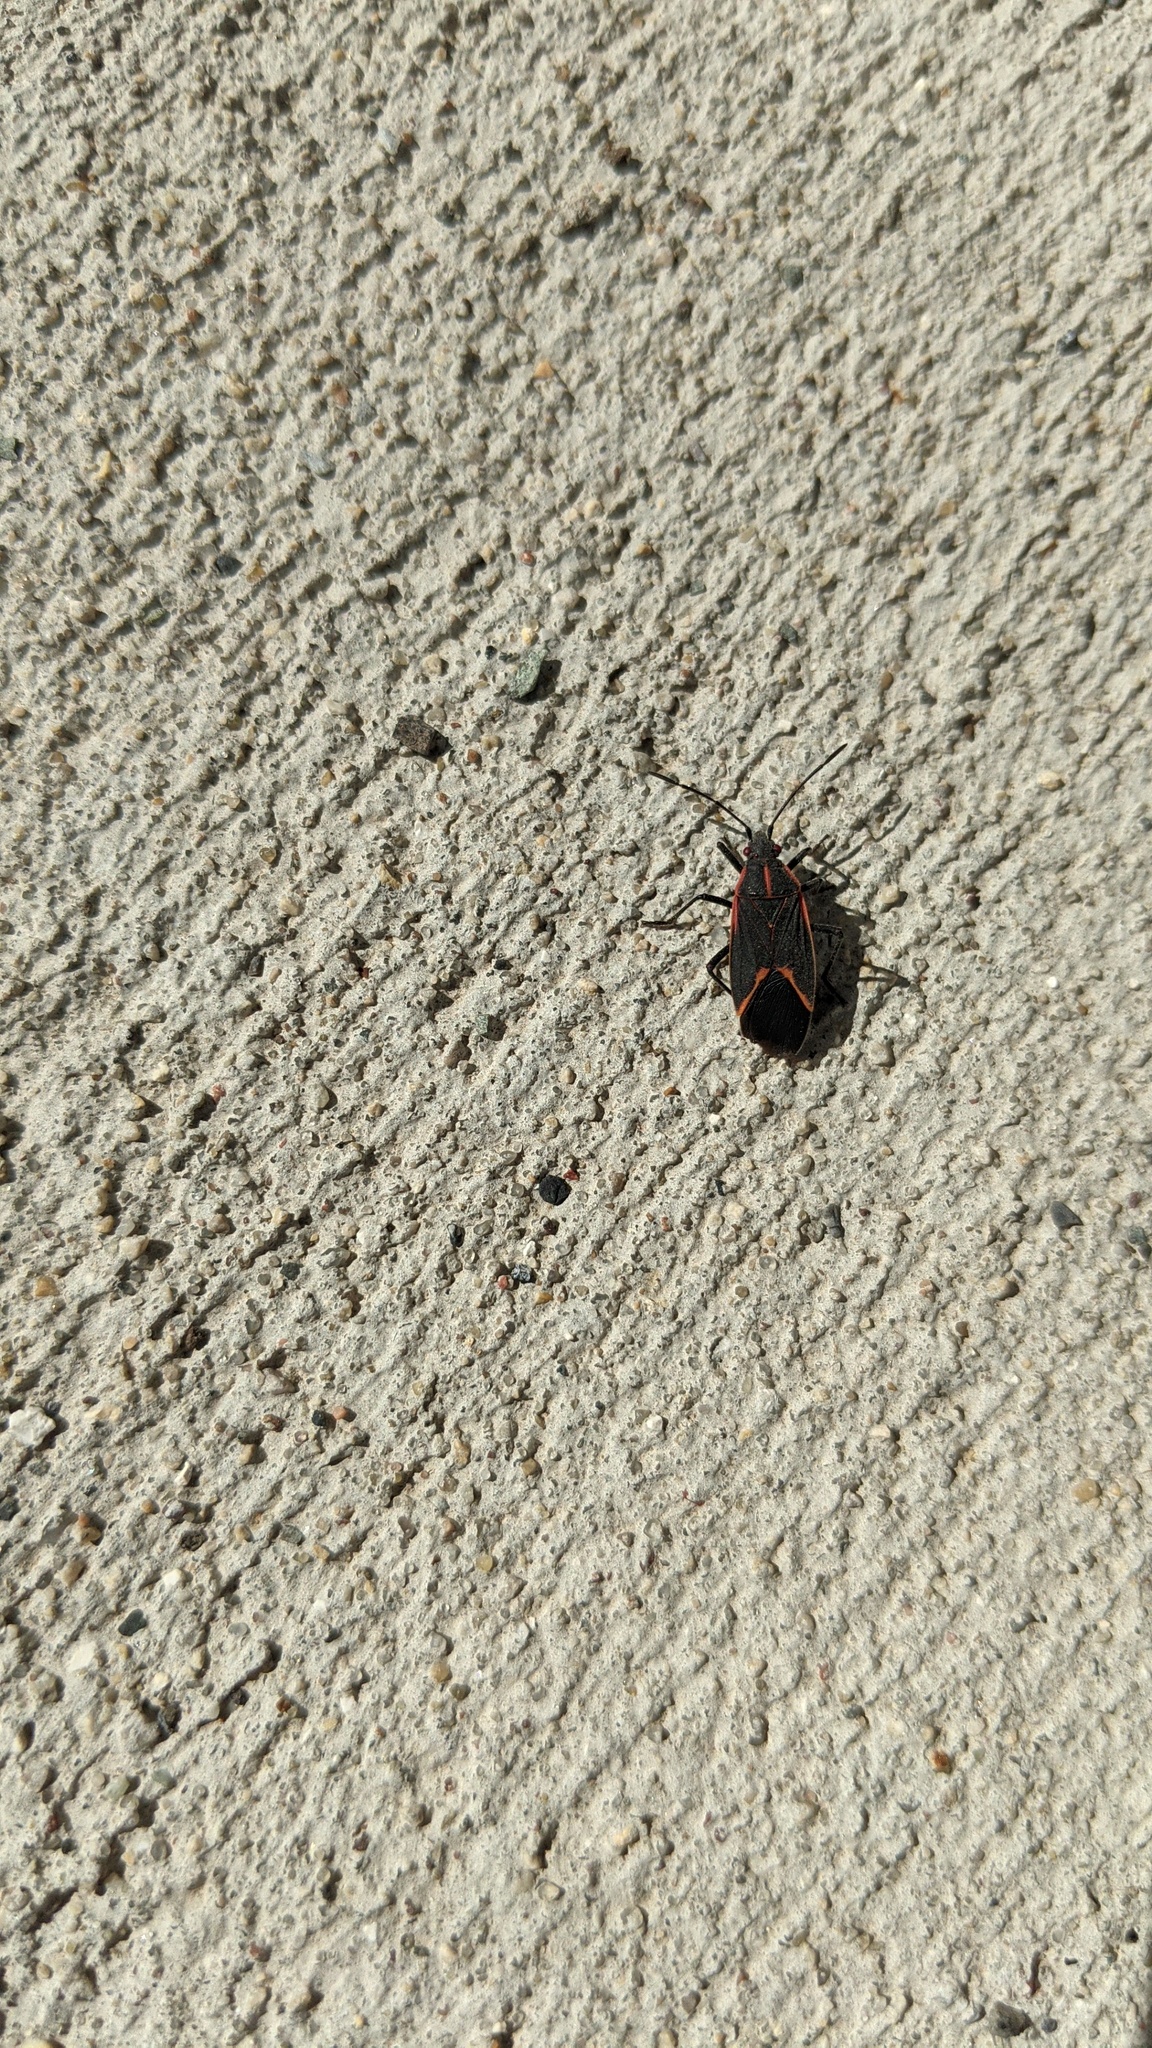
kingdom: Animalia
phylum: Arthropoda
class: Insecta
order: Hemiptera
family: Rhopalidae
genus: Boisea
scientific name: Boisea trivittata
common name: Boxelder bug
